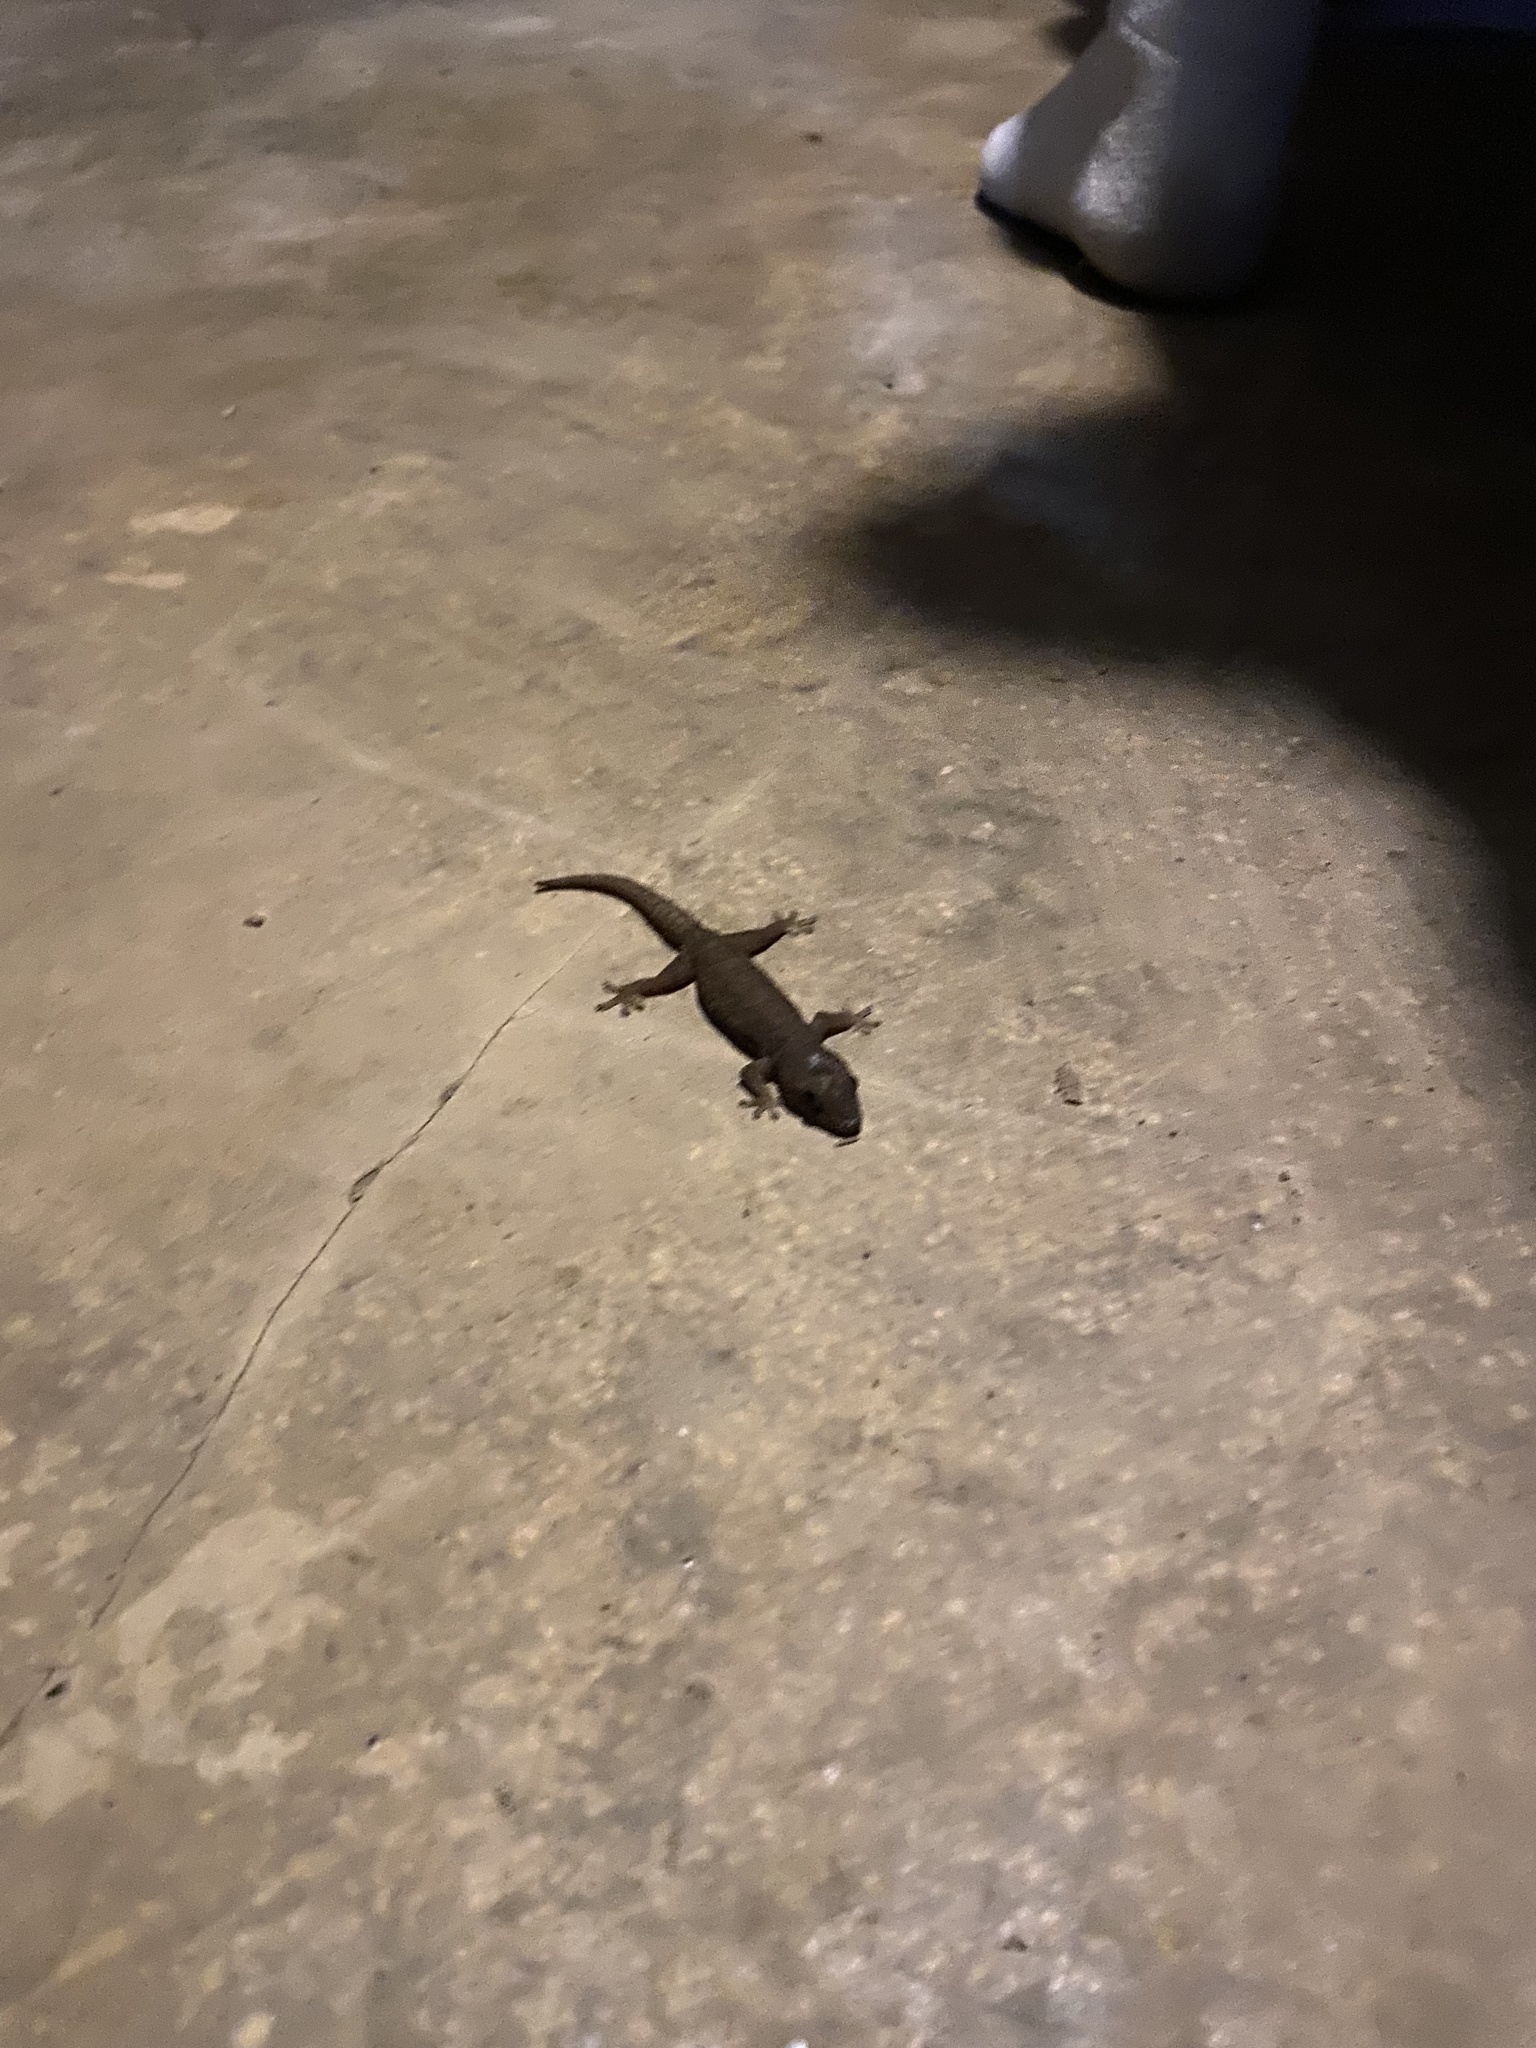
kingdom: Animalia
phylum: Chordata
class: Squamata
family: Gekkonidae
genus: Hemidactylus
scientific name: Hemidactylus frenatus
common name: Common house gecko
